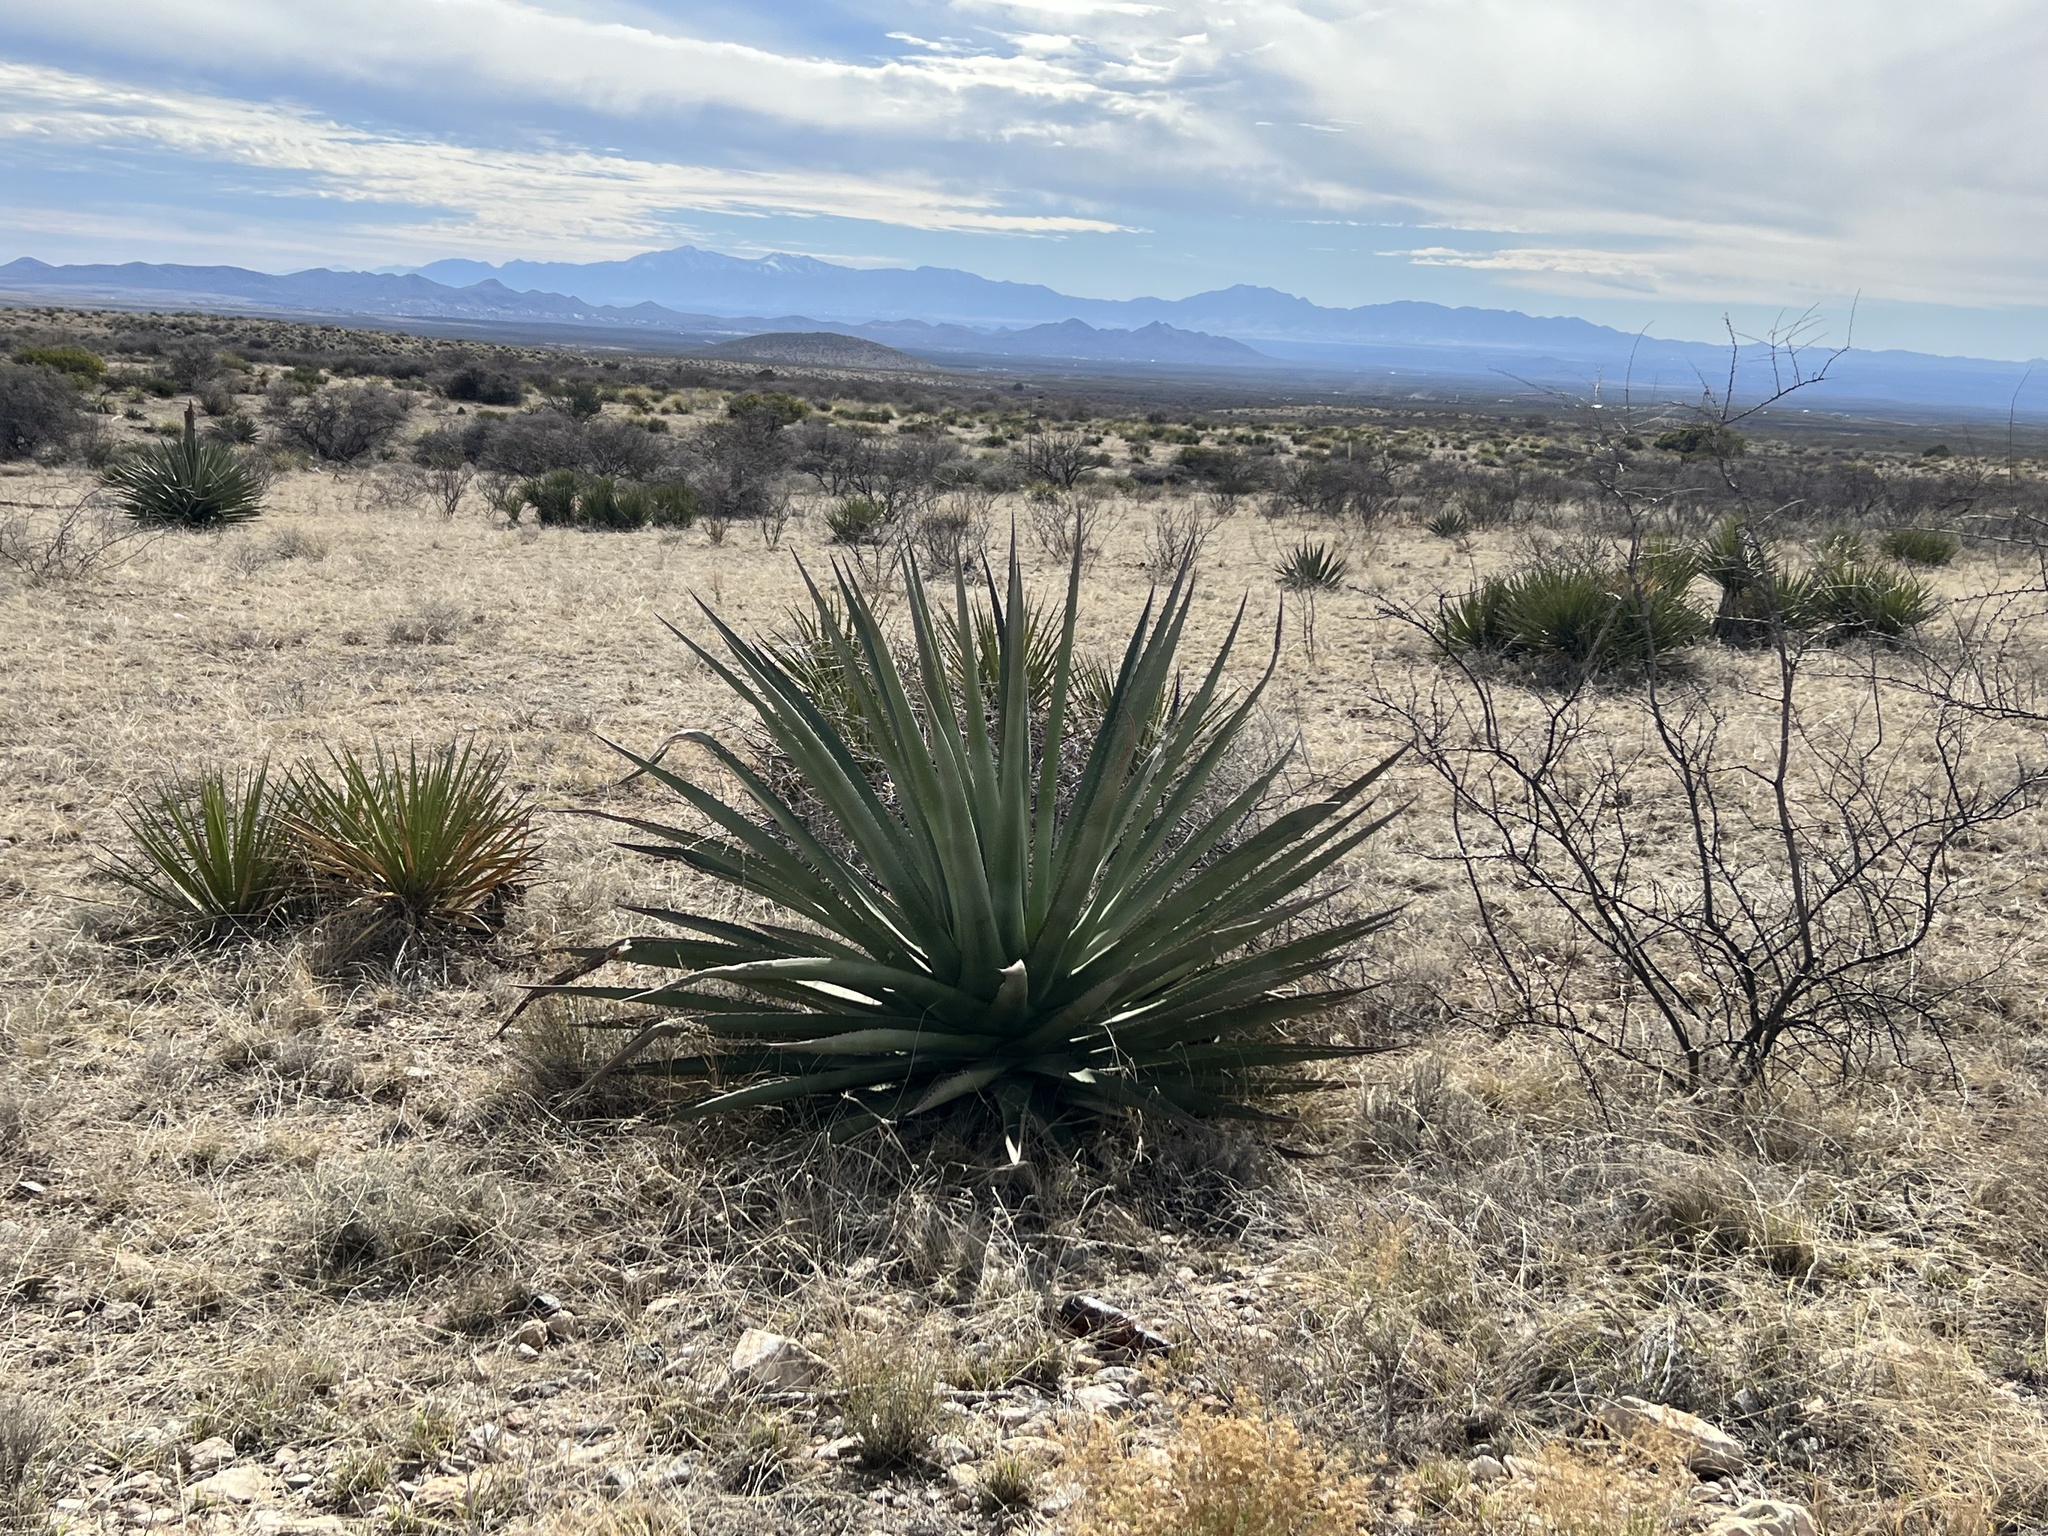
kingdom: Plantae
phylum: Tracheophyta
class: Liliopsida
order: Asparagales
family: Asparagaceae
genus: Agave
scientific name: Agave palmeri
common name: Palmer agave
